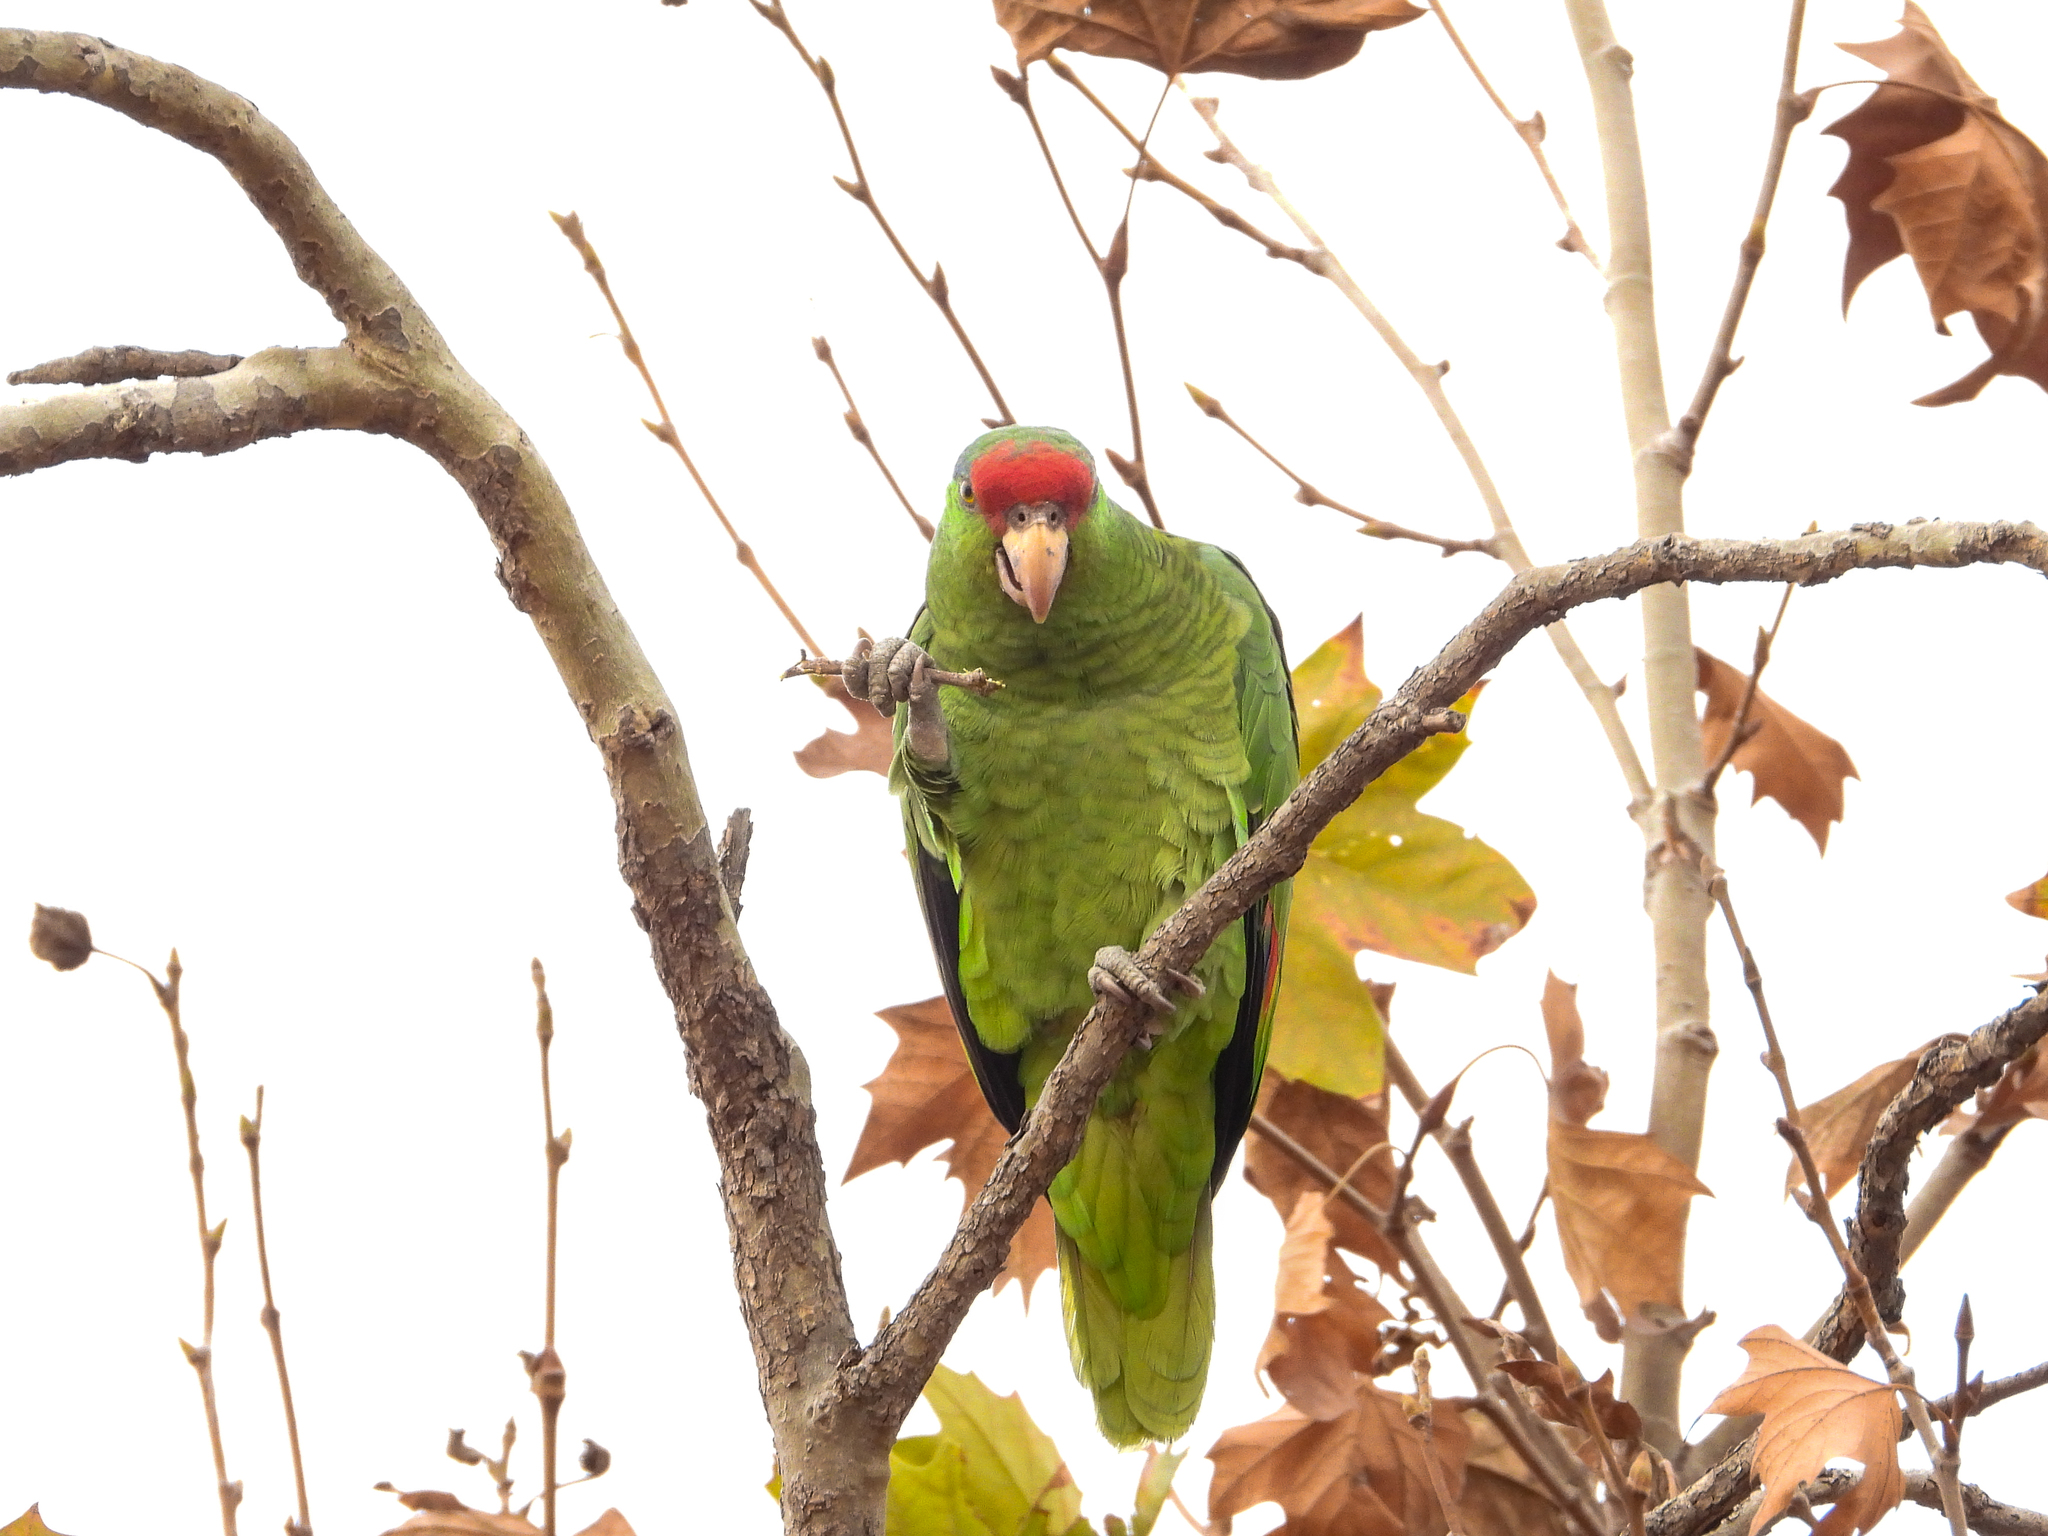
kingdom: Animalia
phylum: Chordata
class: Aves
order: Psittaciformes
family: Psittacidae
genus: Amazona
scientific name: Amazona viridigenalis
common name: Red-crowned amazon
